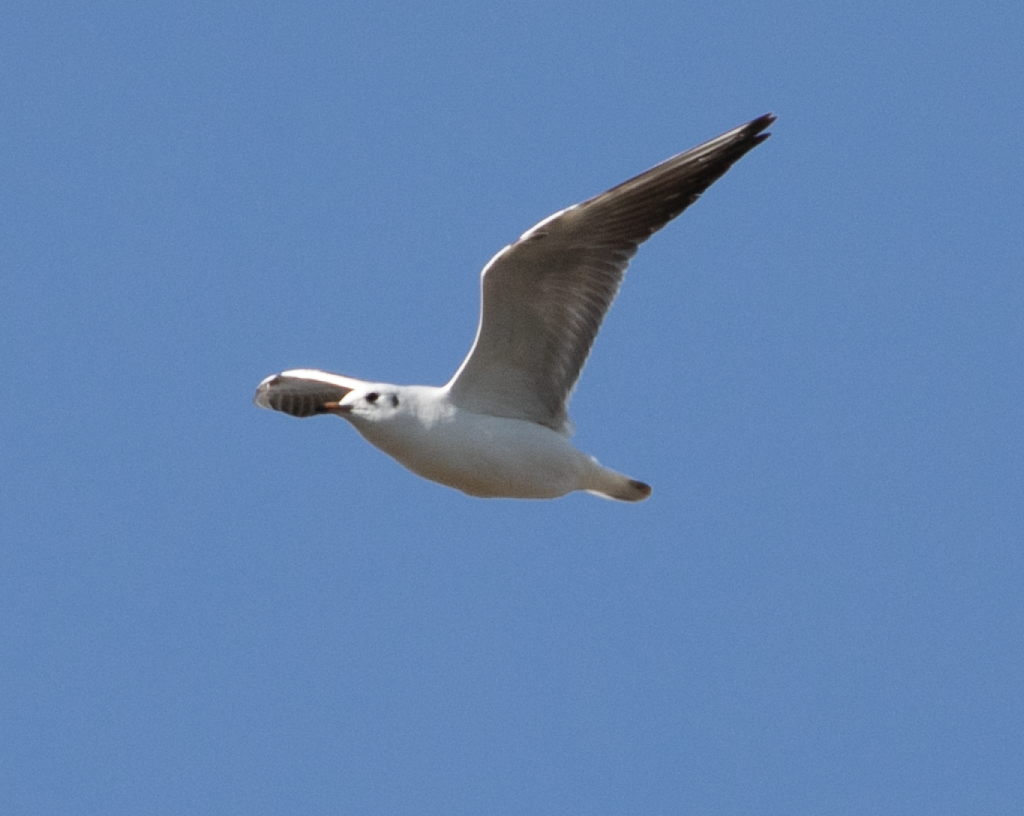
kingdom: Animalia
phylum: Chordata
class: Aves
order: Charadriiformes
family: Laridae
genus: Chroicocephalus
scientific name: Chroicocephalus ridibundus
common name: Black-headed gull
